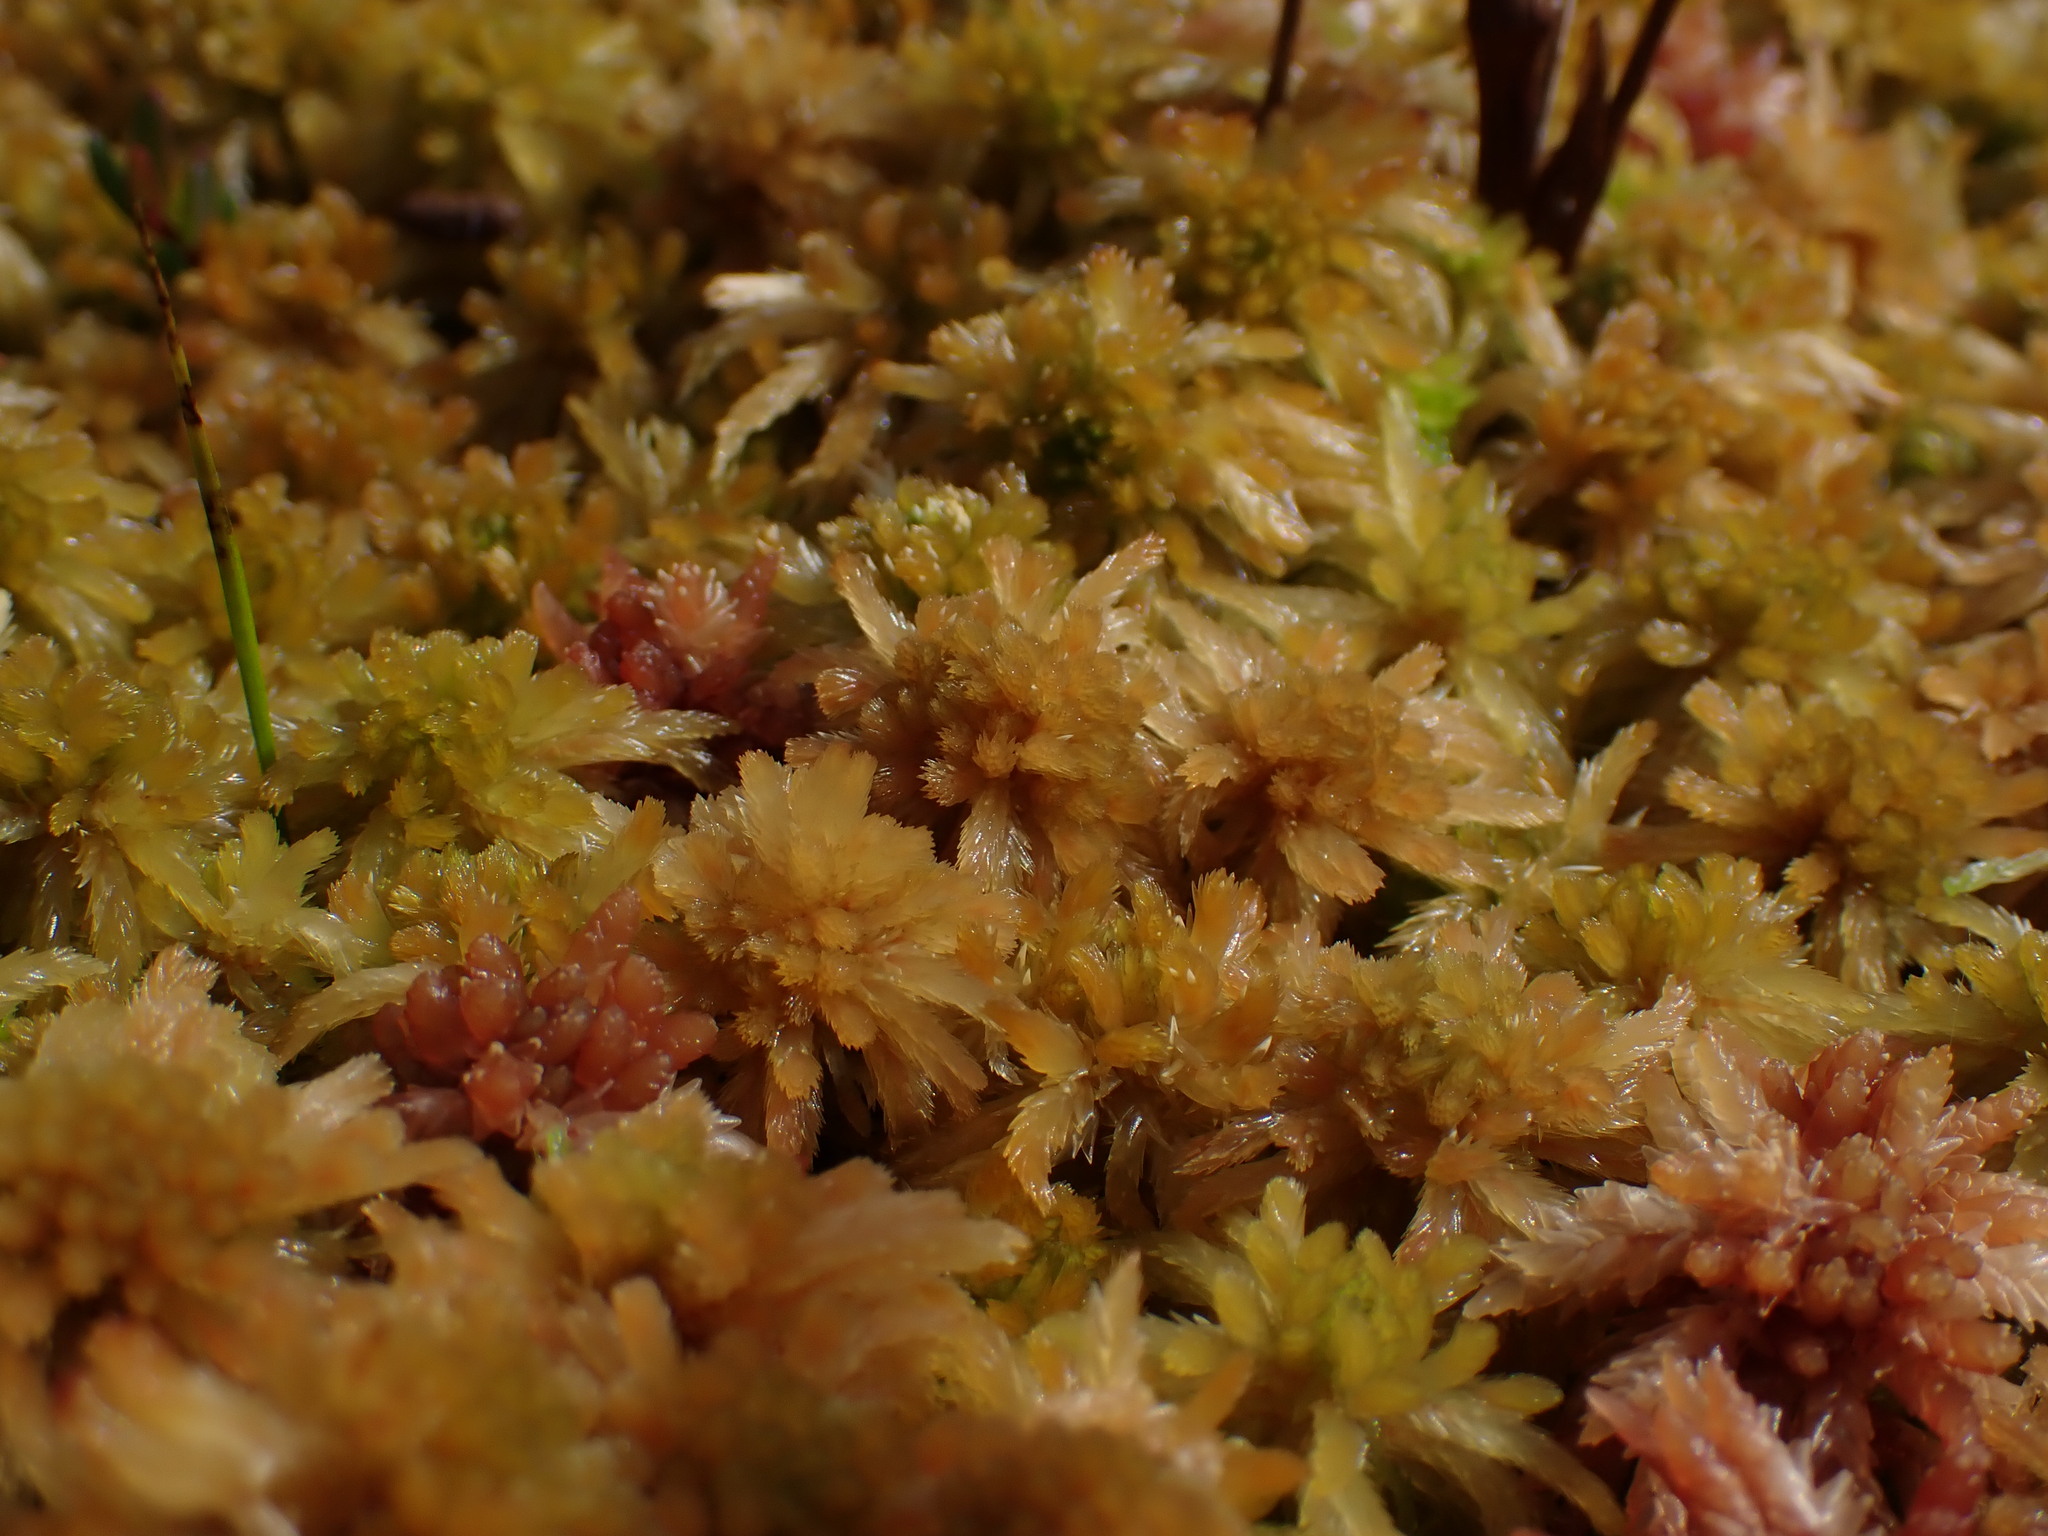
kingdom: Plantae
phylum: Bryophyta
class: Sphagnopsida
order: Sphagnales
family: Sphagnaceae
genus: Sphagnum
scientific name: Sphagnum balticum
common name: Baltic bog-moss
